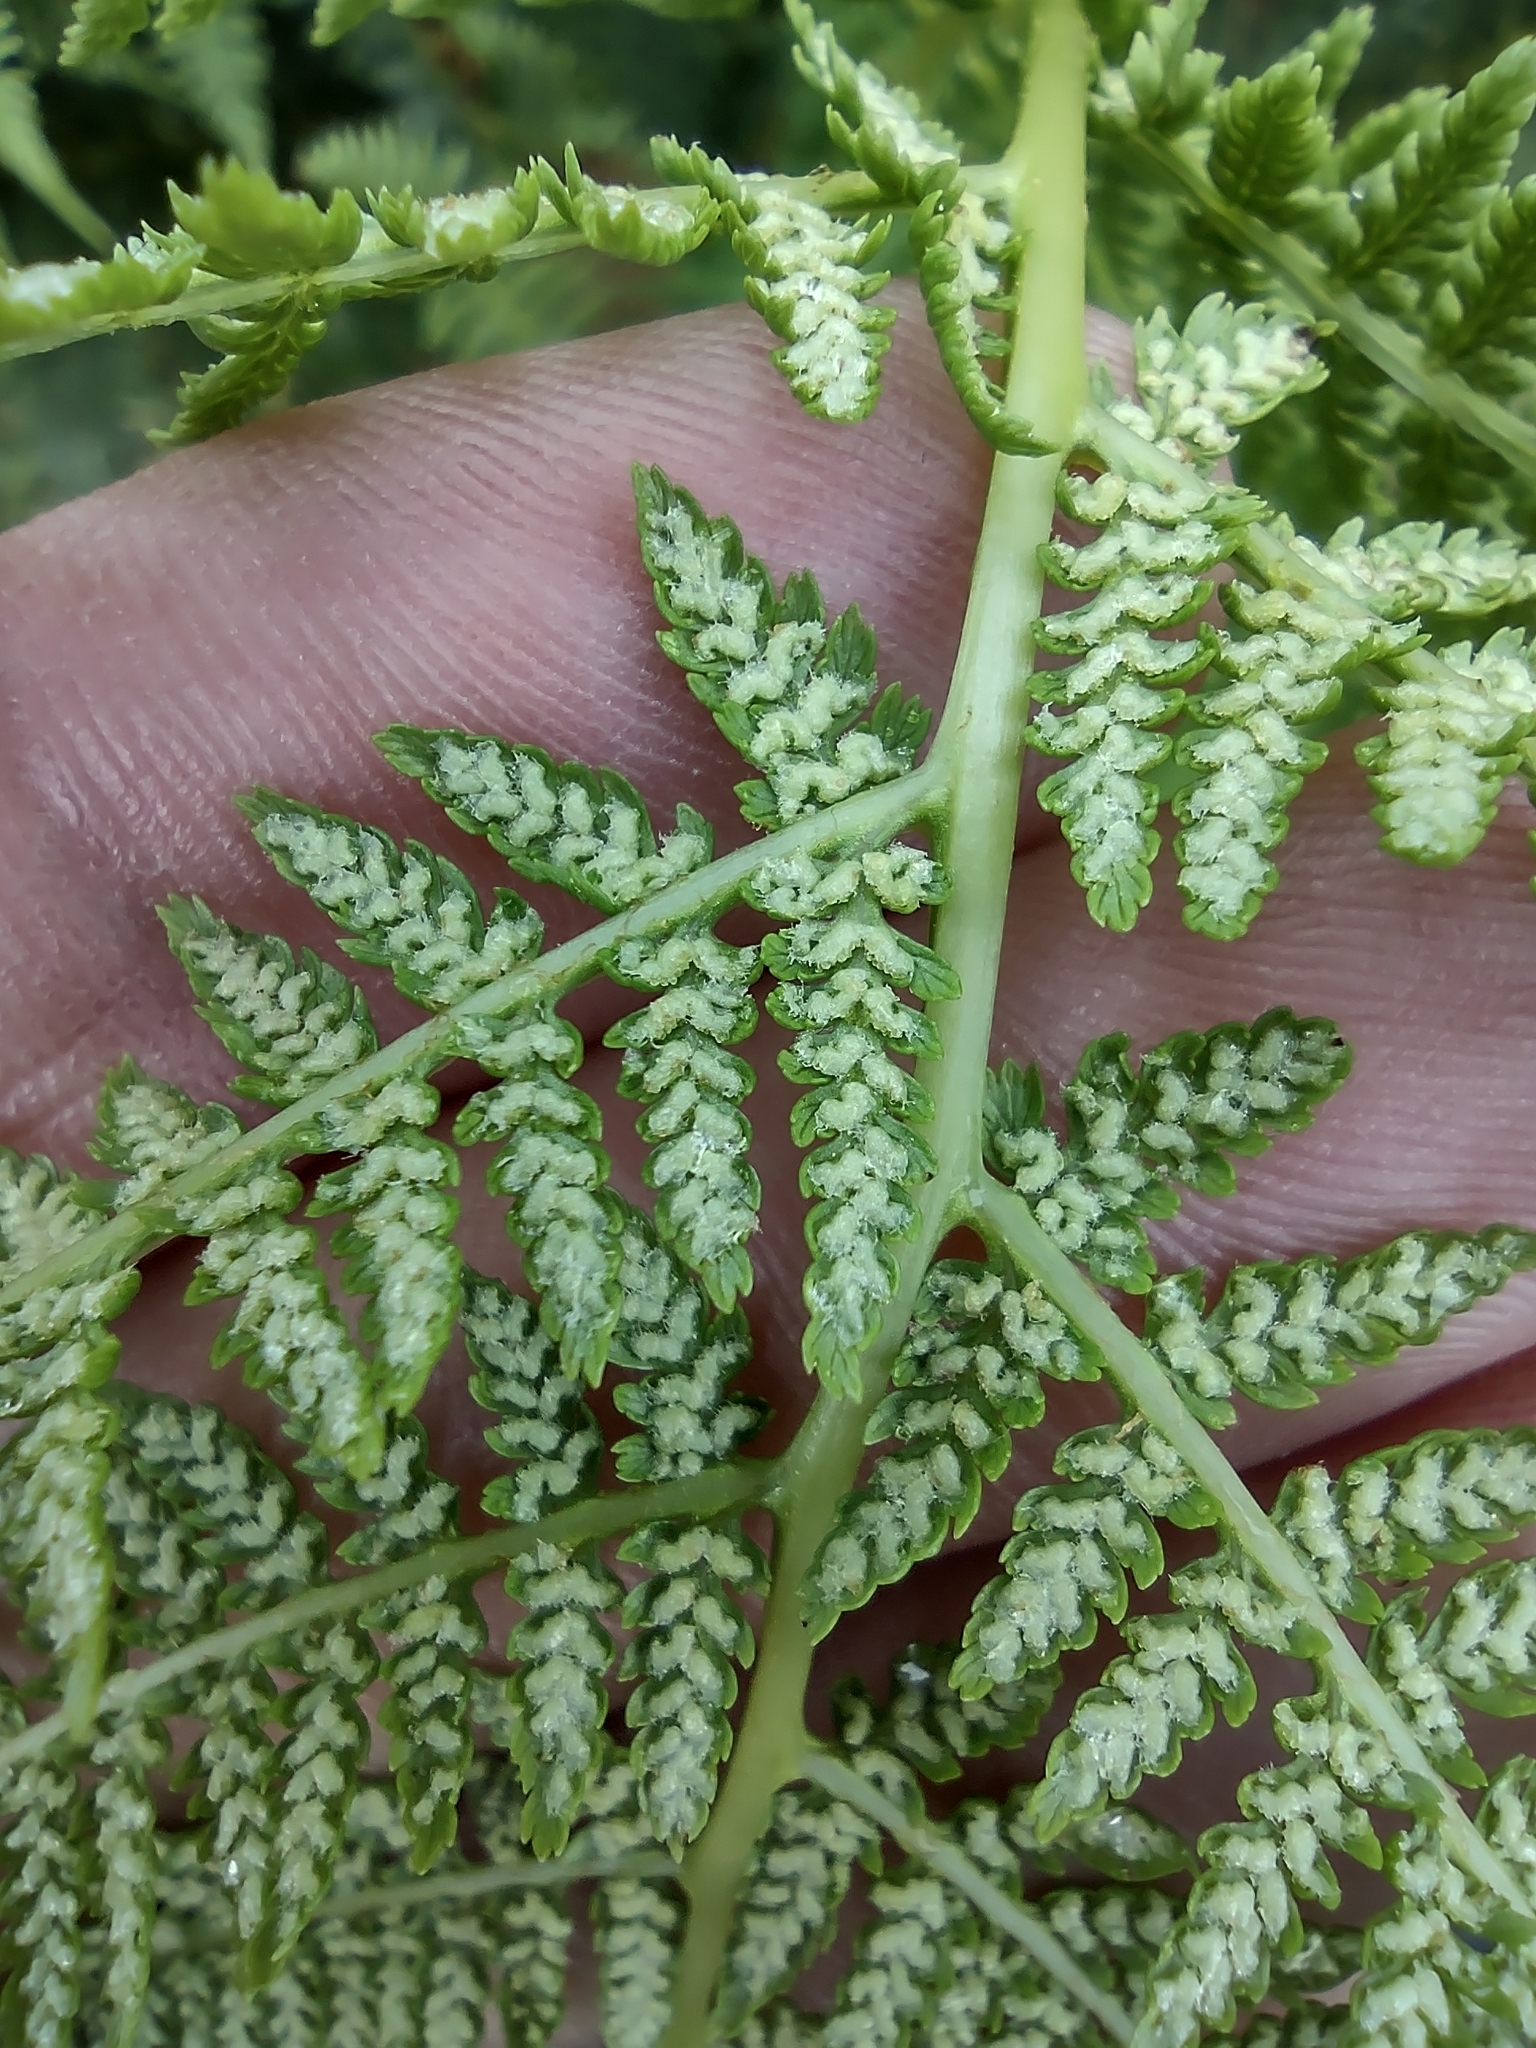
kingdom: Plantae
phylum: Tracheophyta
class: Polypodiopsida
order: Polypodiales
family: Athyriaceae
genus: Athyrium
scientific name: Athyrium filix-femina
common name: Lady fern
